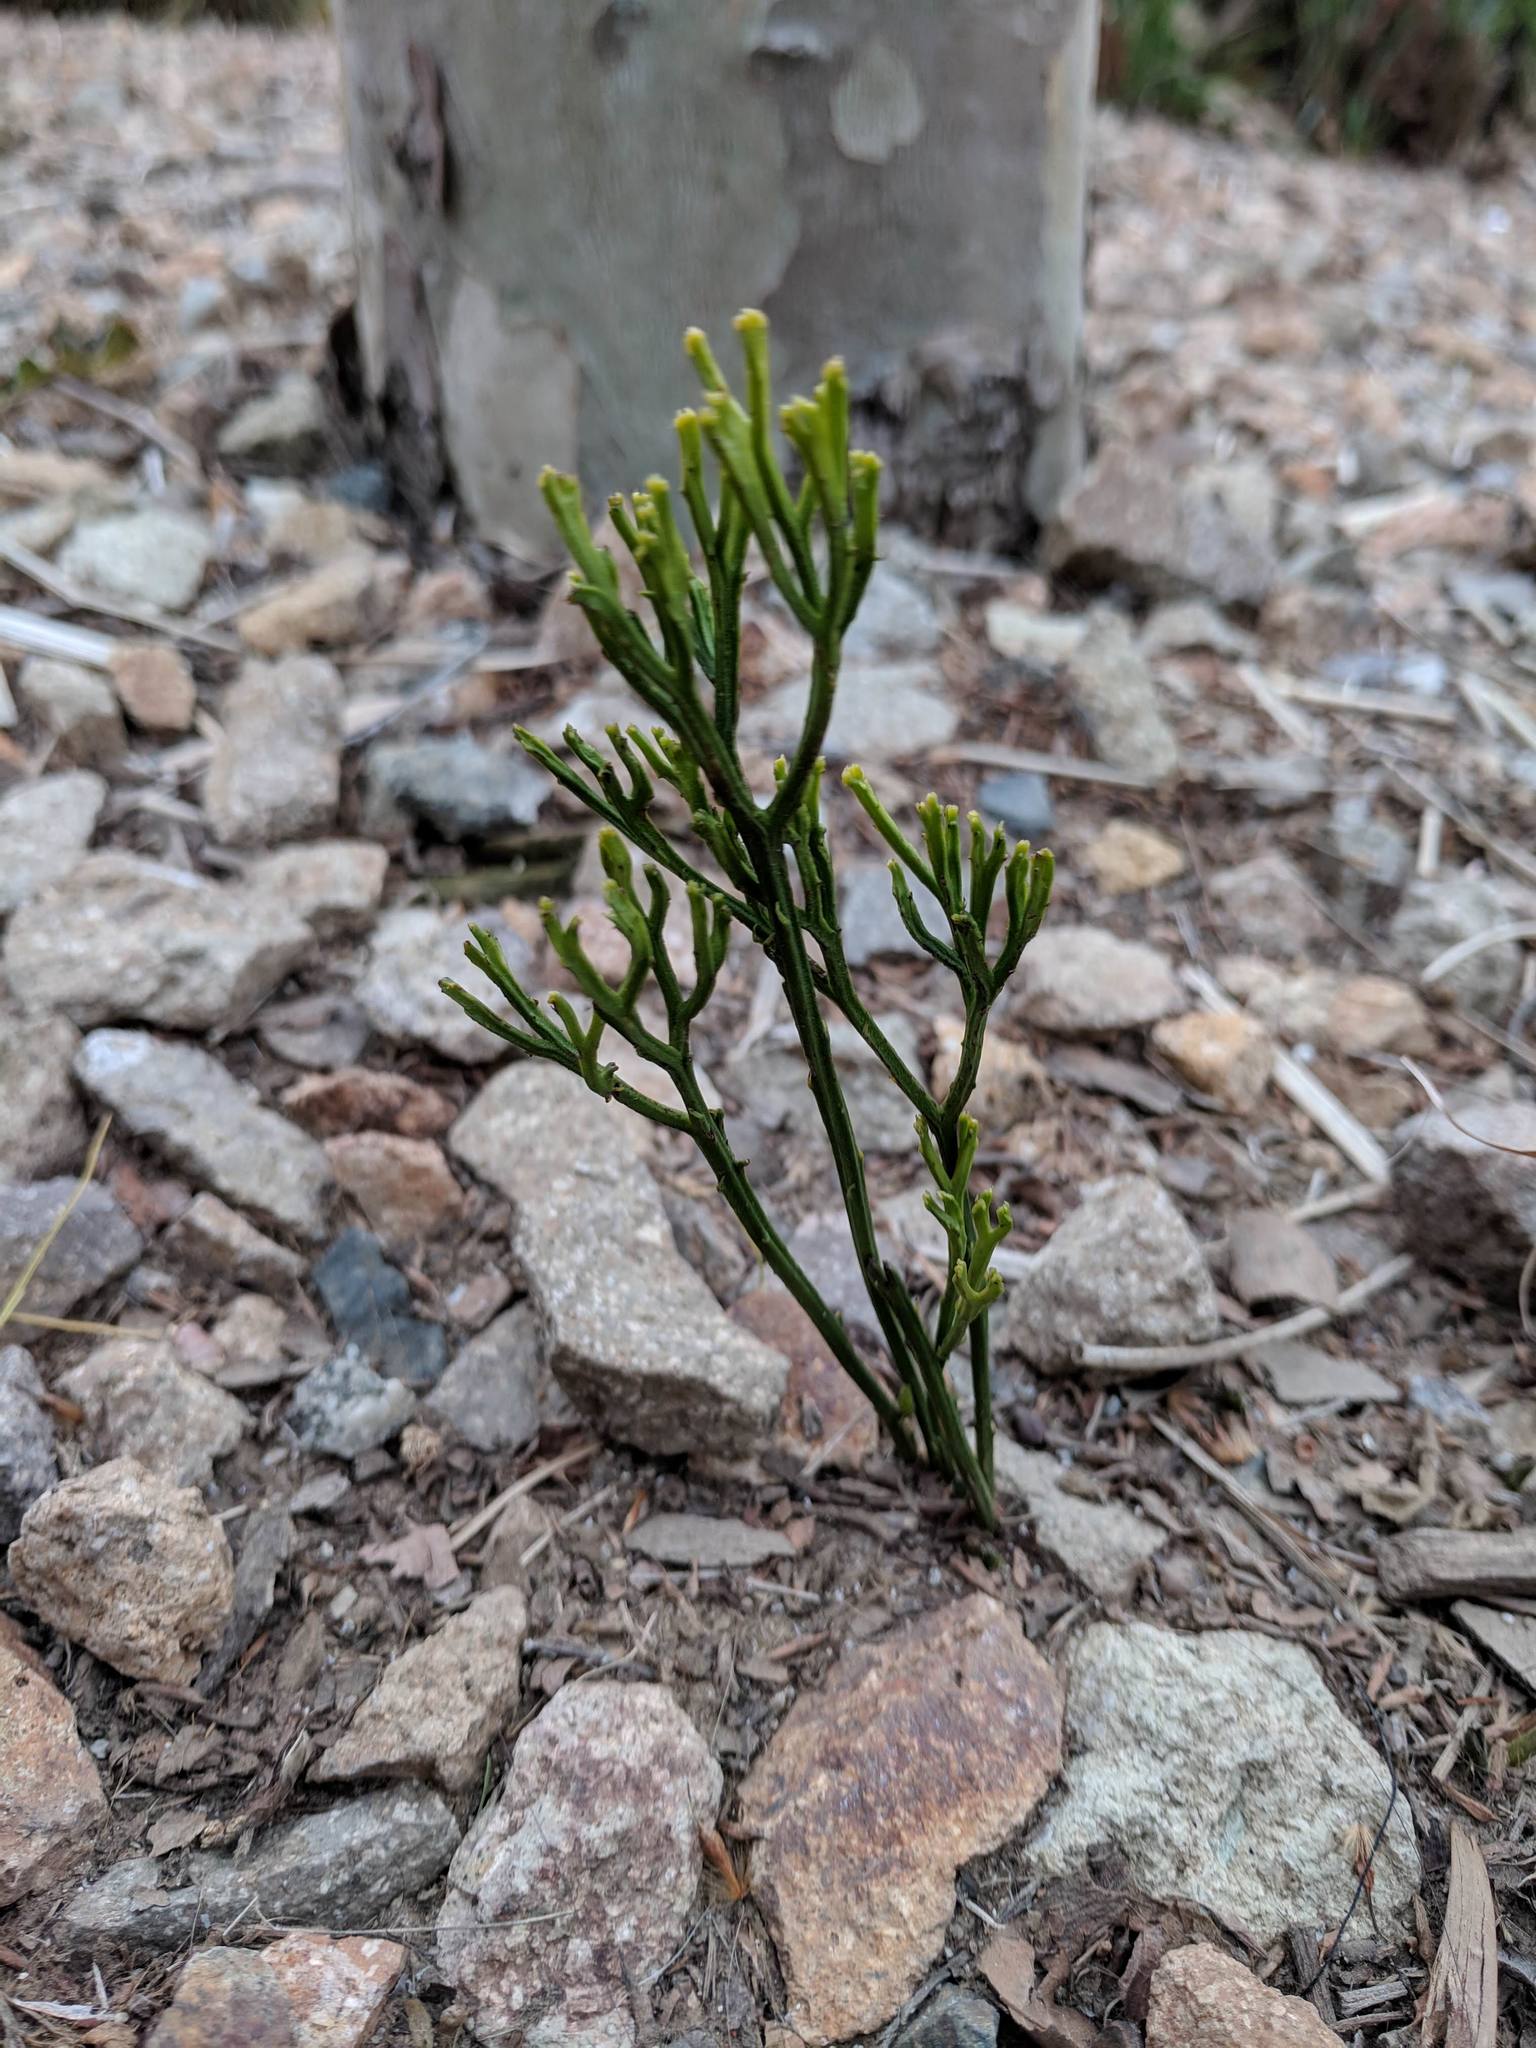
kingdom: Plantae
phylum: Tracheophyta
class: Polypodiopsida
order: Psilotales
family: Psilotaceae
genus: Psilotum
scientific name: Psilotum nudum
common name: Skeleton fork fern
